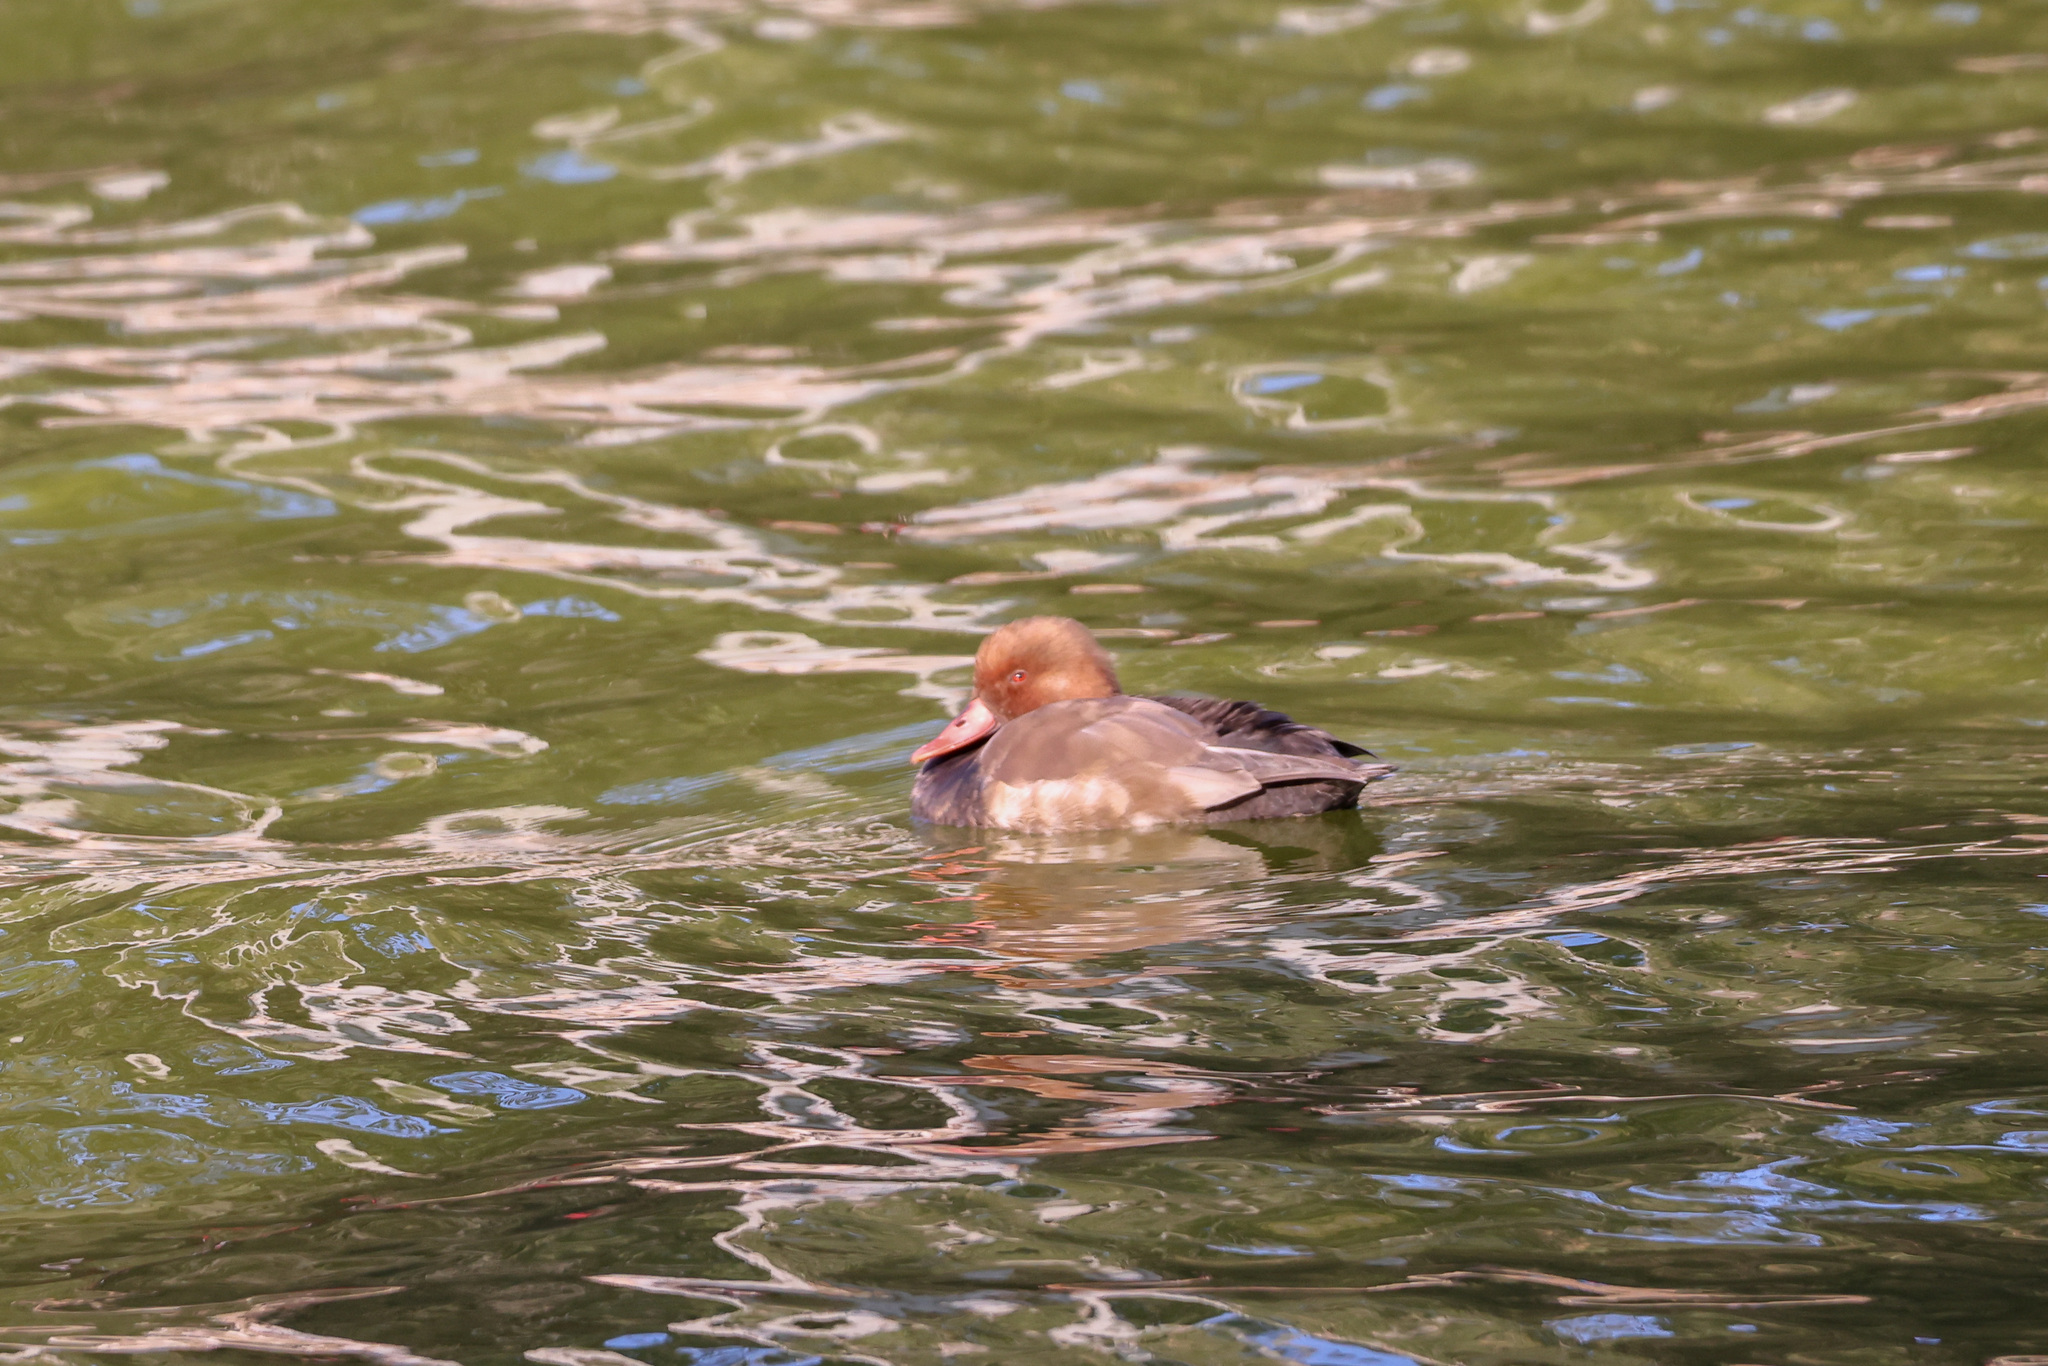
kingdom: Animalia
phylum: Chordata
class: Aves
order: Anseriformes
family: Anatidae
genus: Netta
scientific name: Netta rufina
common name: Red-crested pochard
